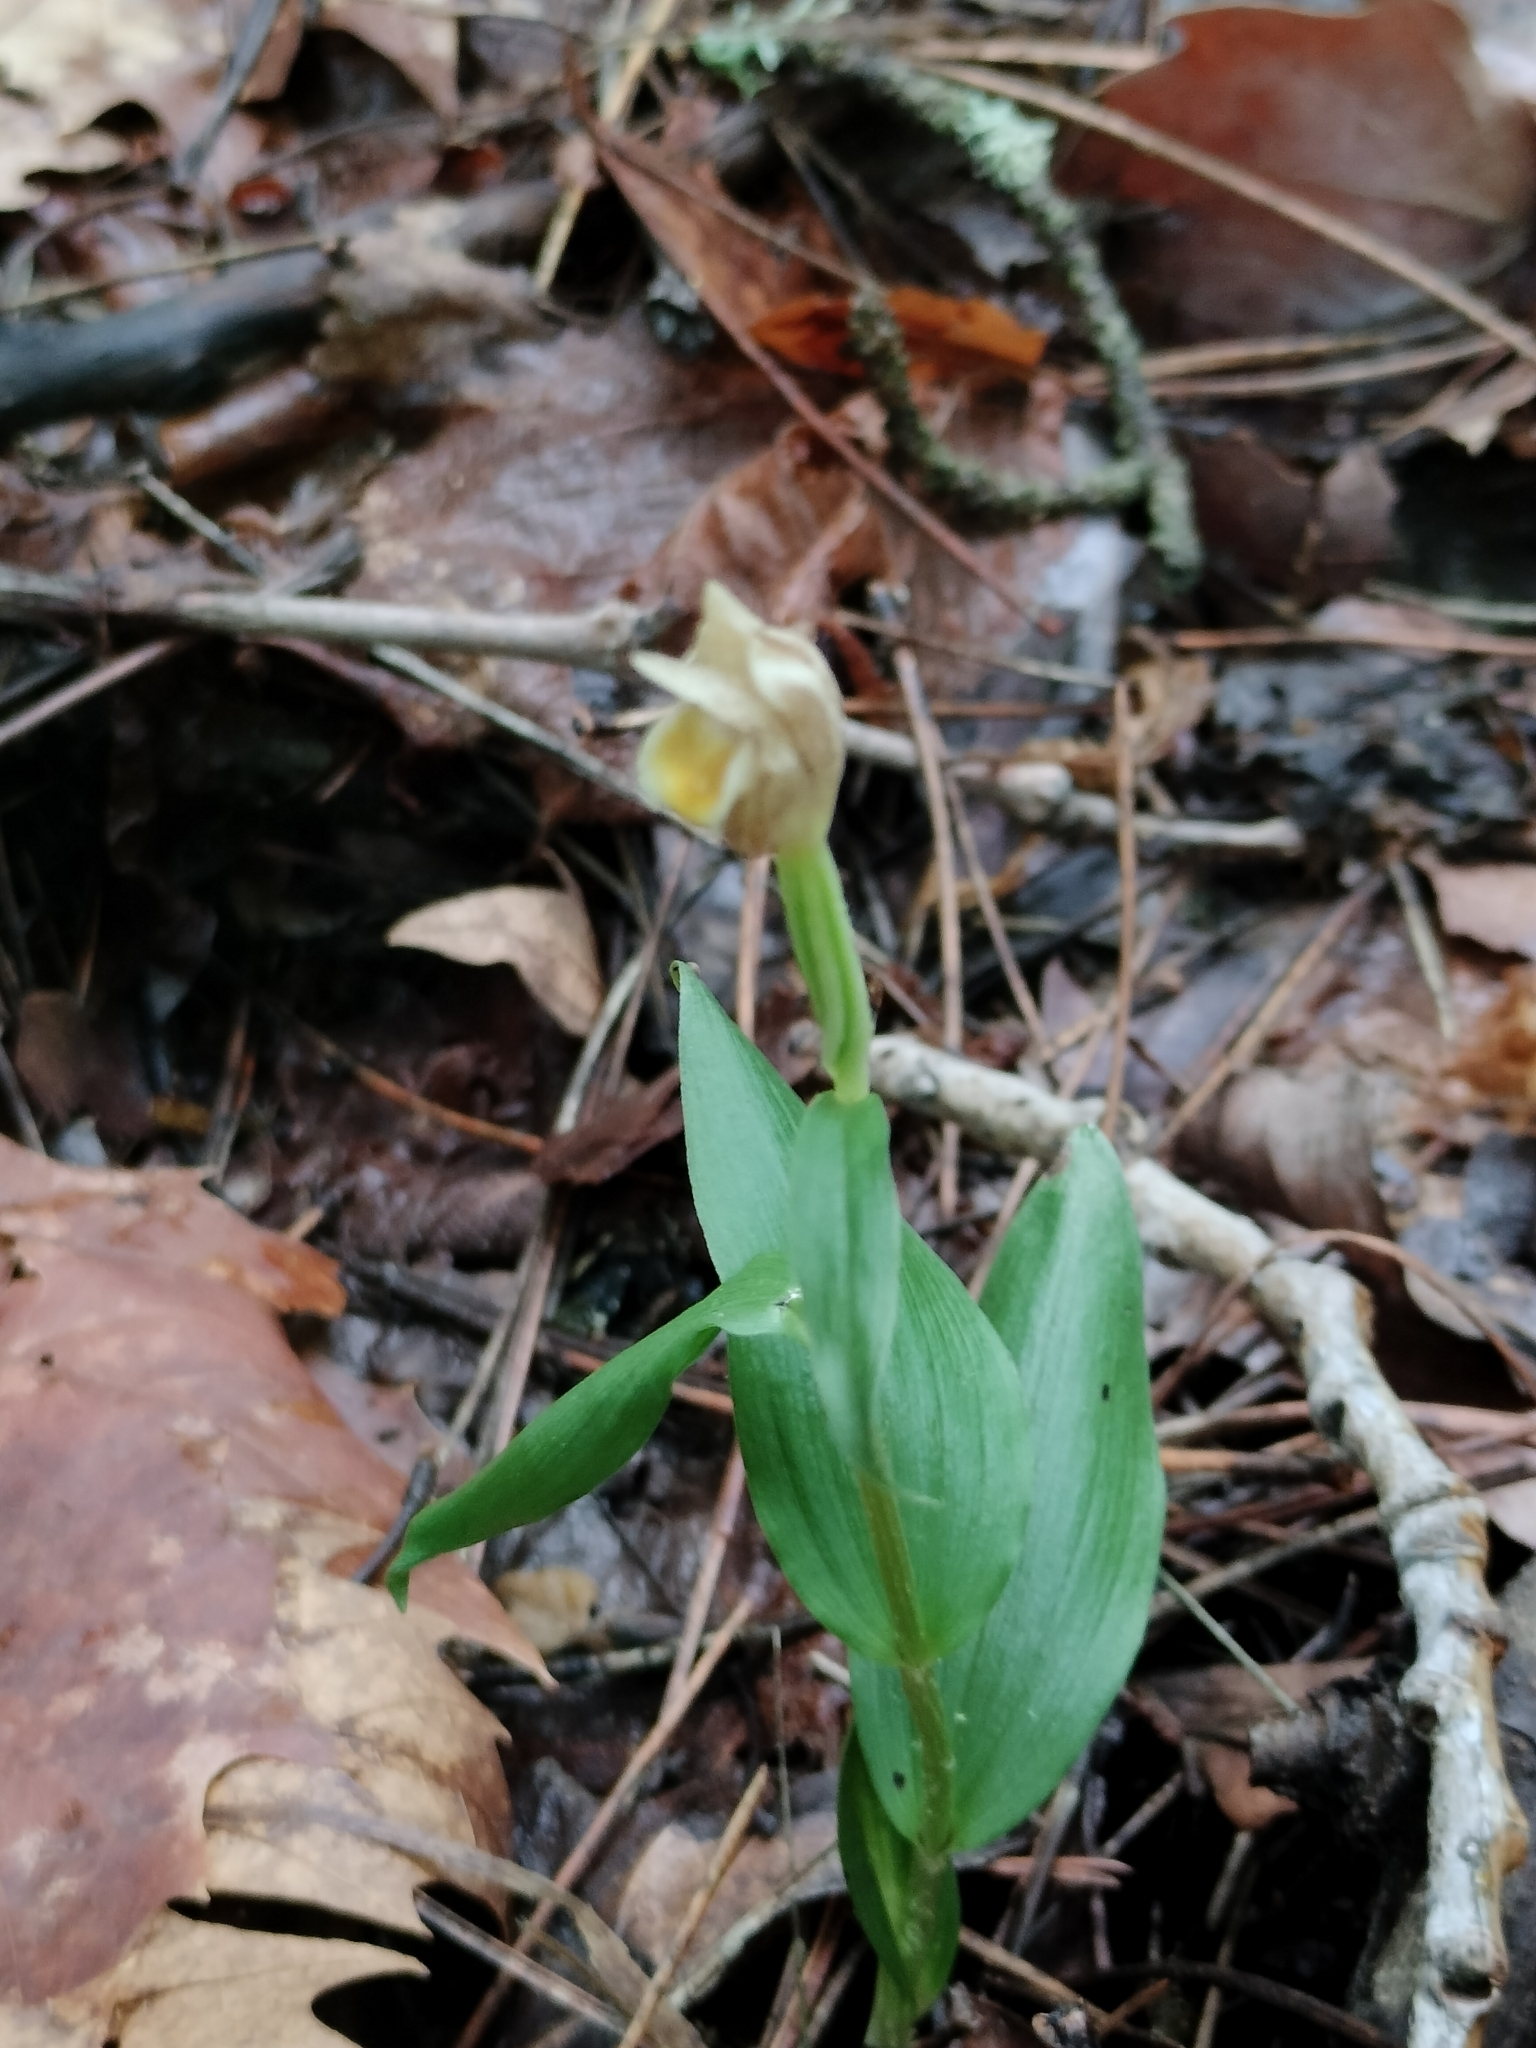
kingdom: Plantae
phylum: Tracheophyta
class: Liliopsida
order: Asparagales
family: Orchidaceae
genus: Cephalanthera
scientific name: Cephalanthera damasonium
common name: White helleborine
